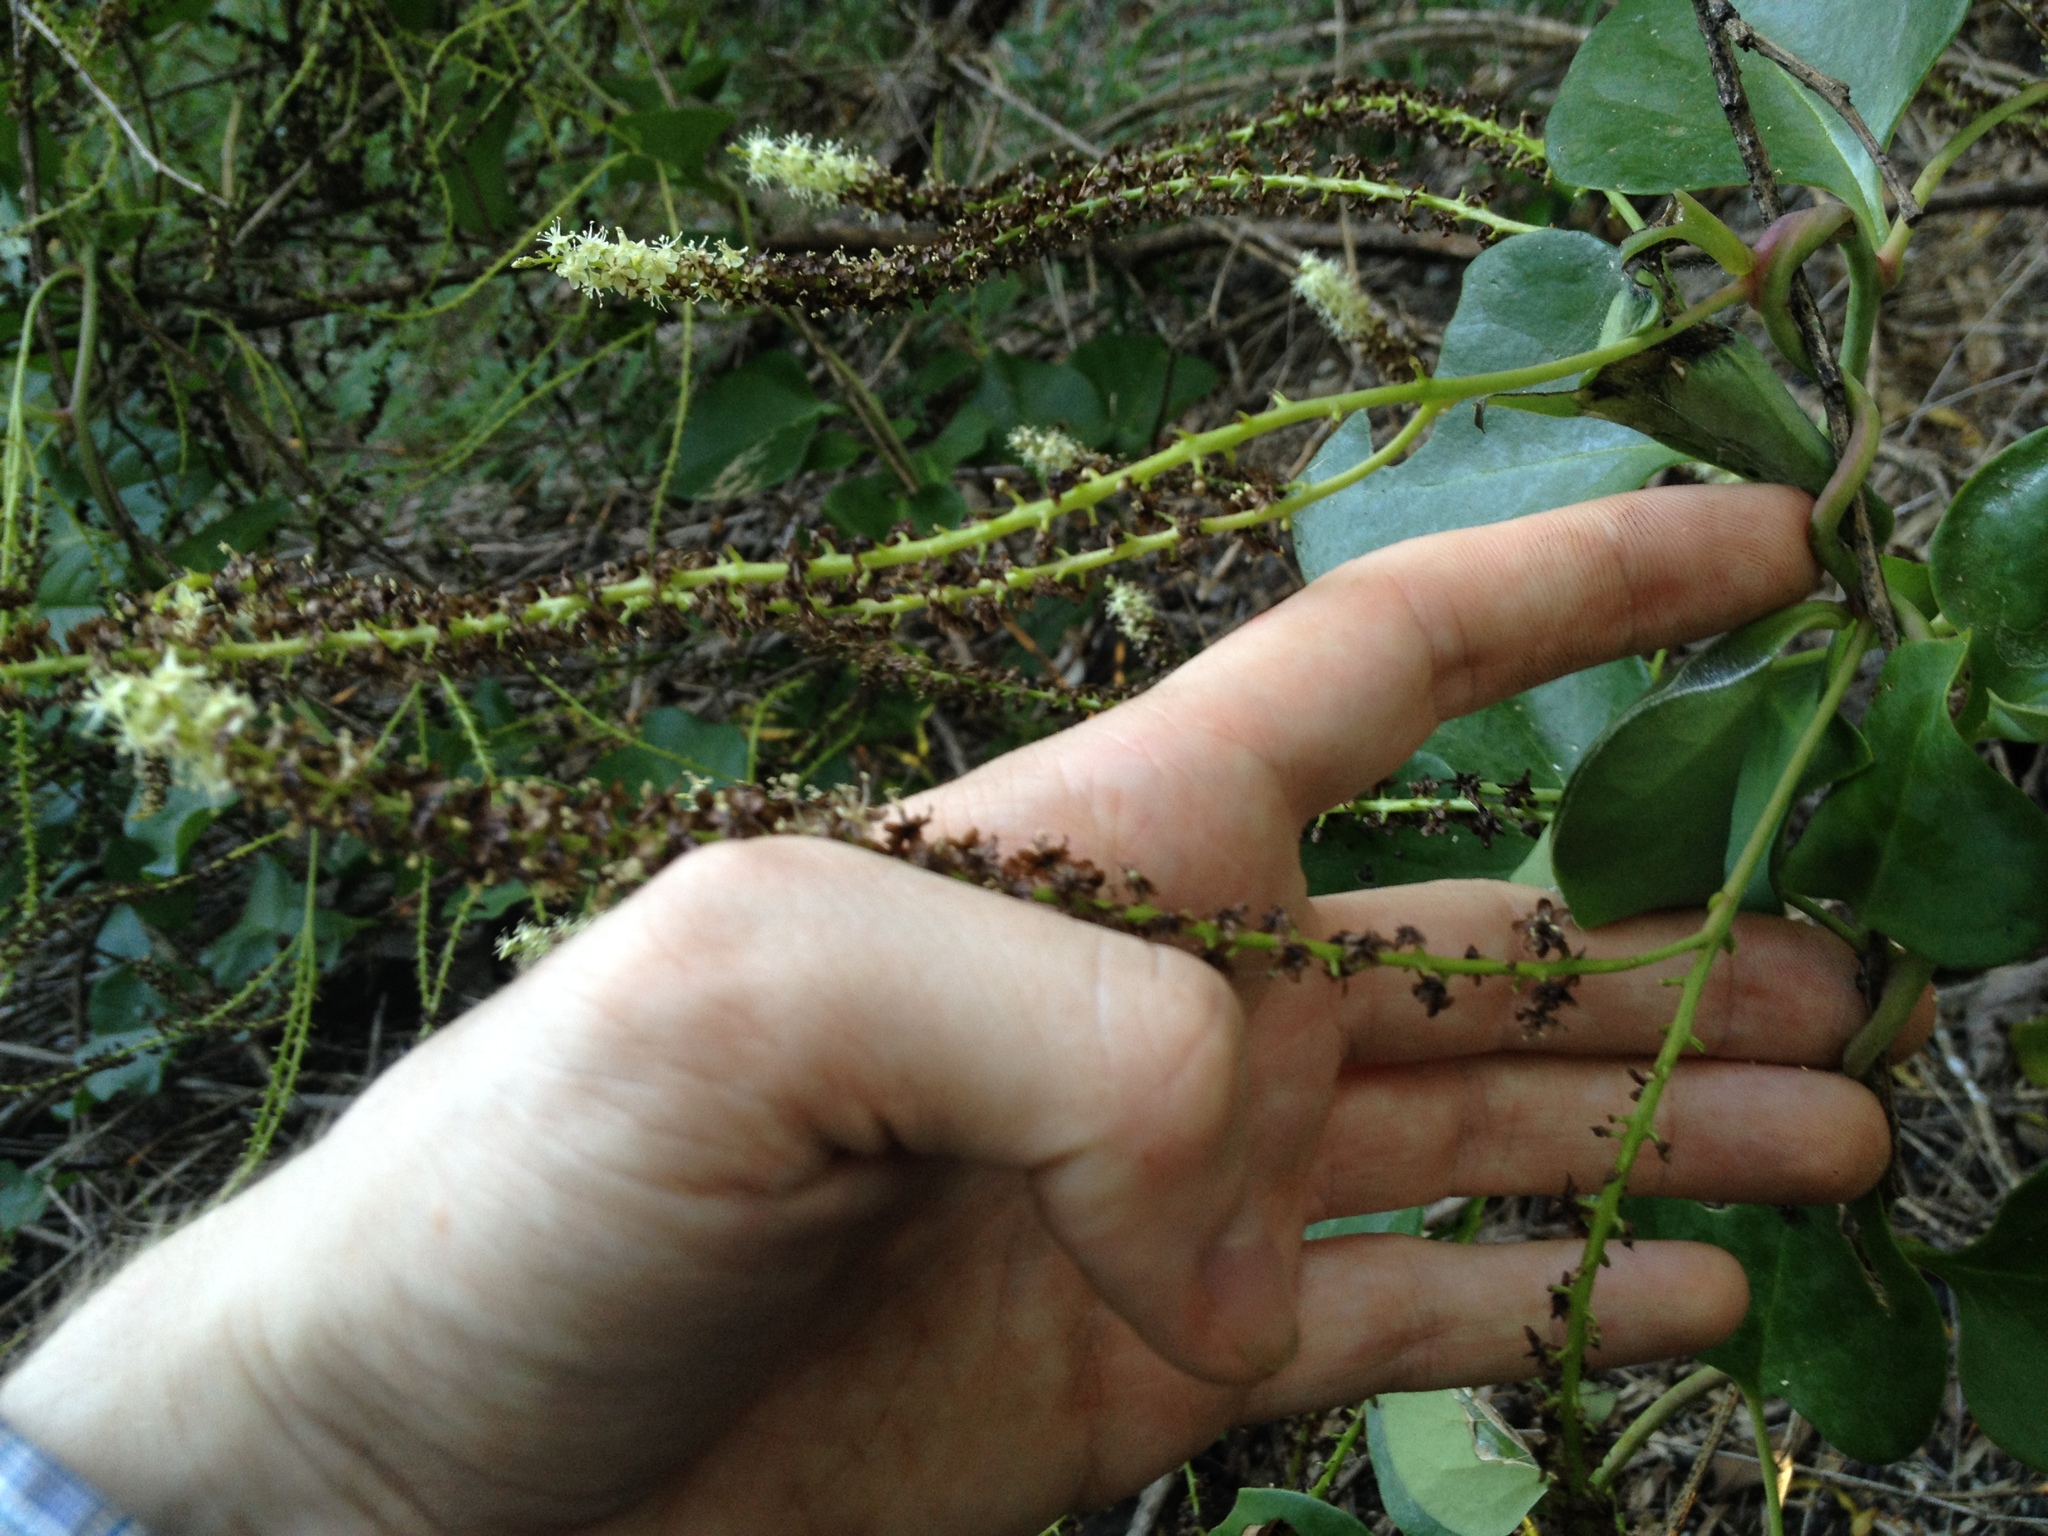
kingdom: Plantae
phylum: Tracheophyta
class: Magnoliopsida
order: Caryophyllales
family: Basellaceae
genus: Anredera
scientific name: Anredera cordifolia
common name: Heartleaf madeiravine
